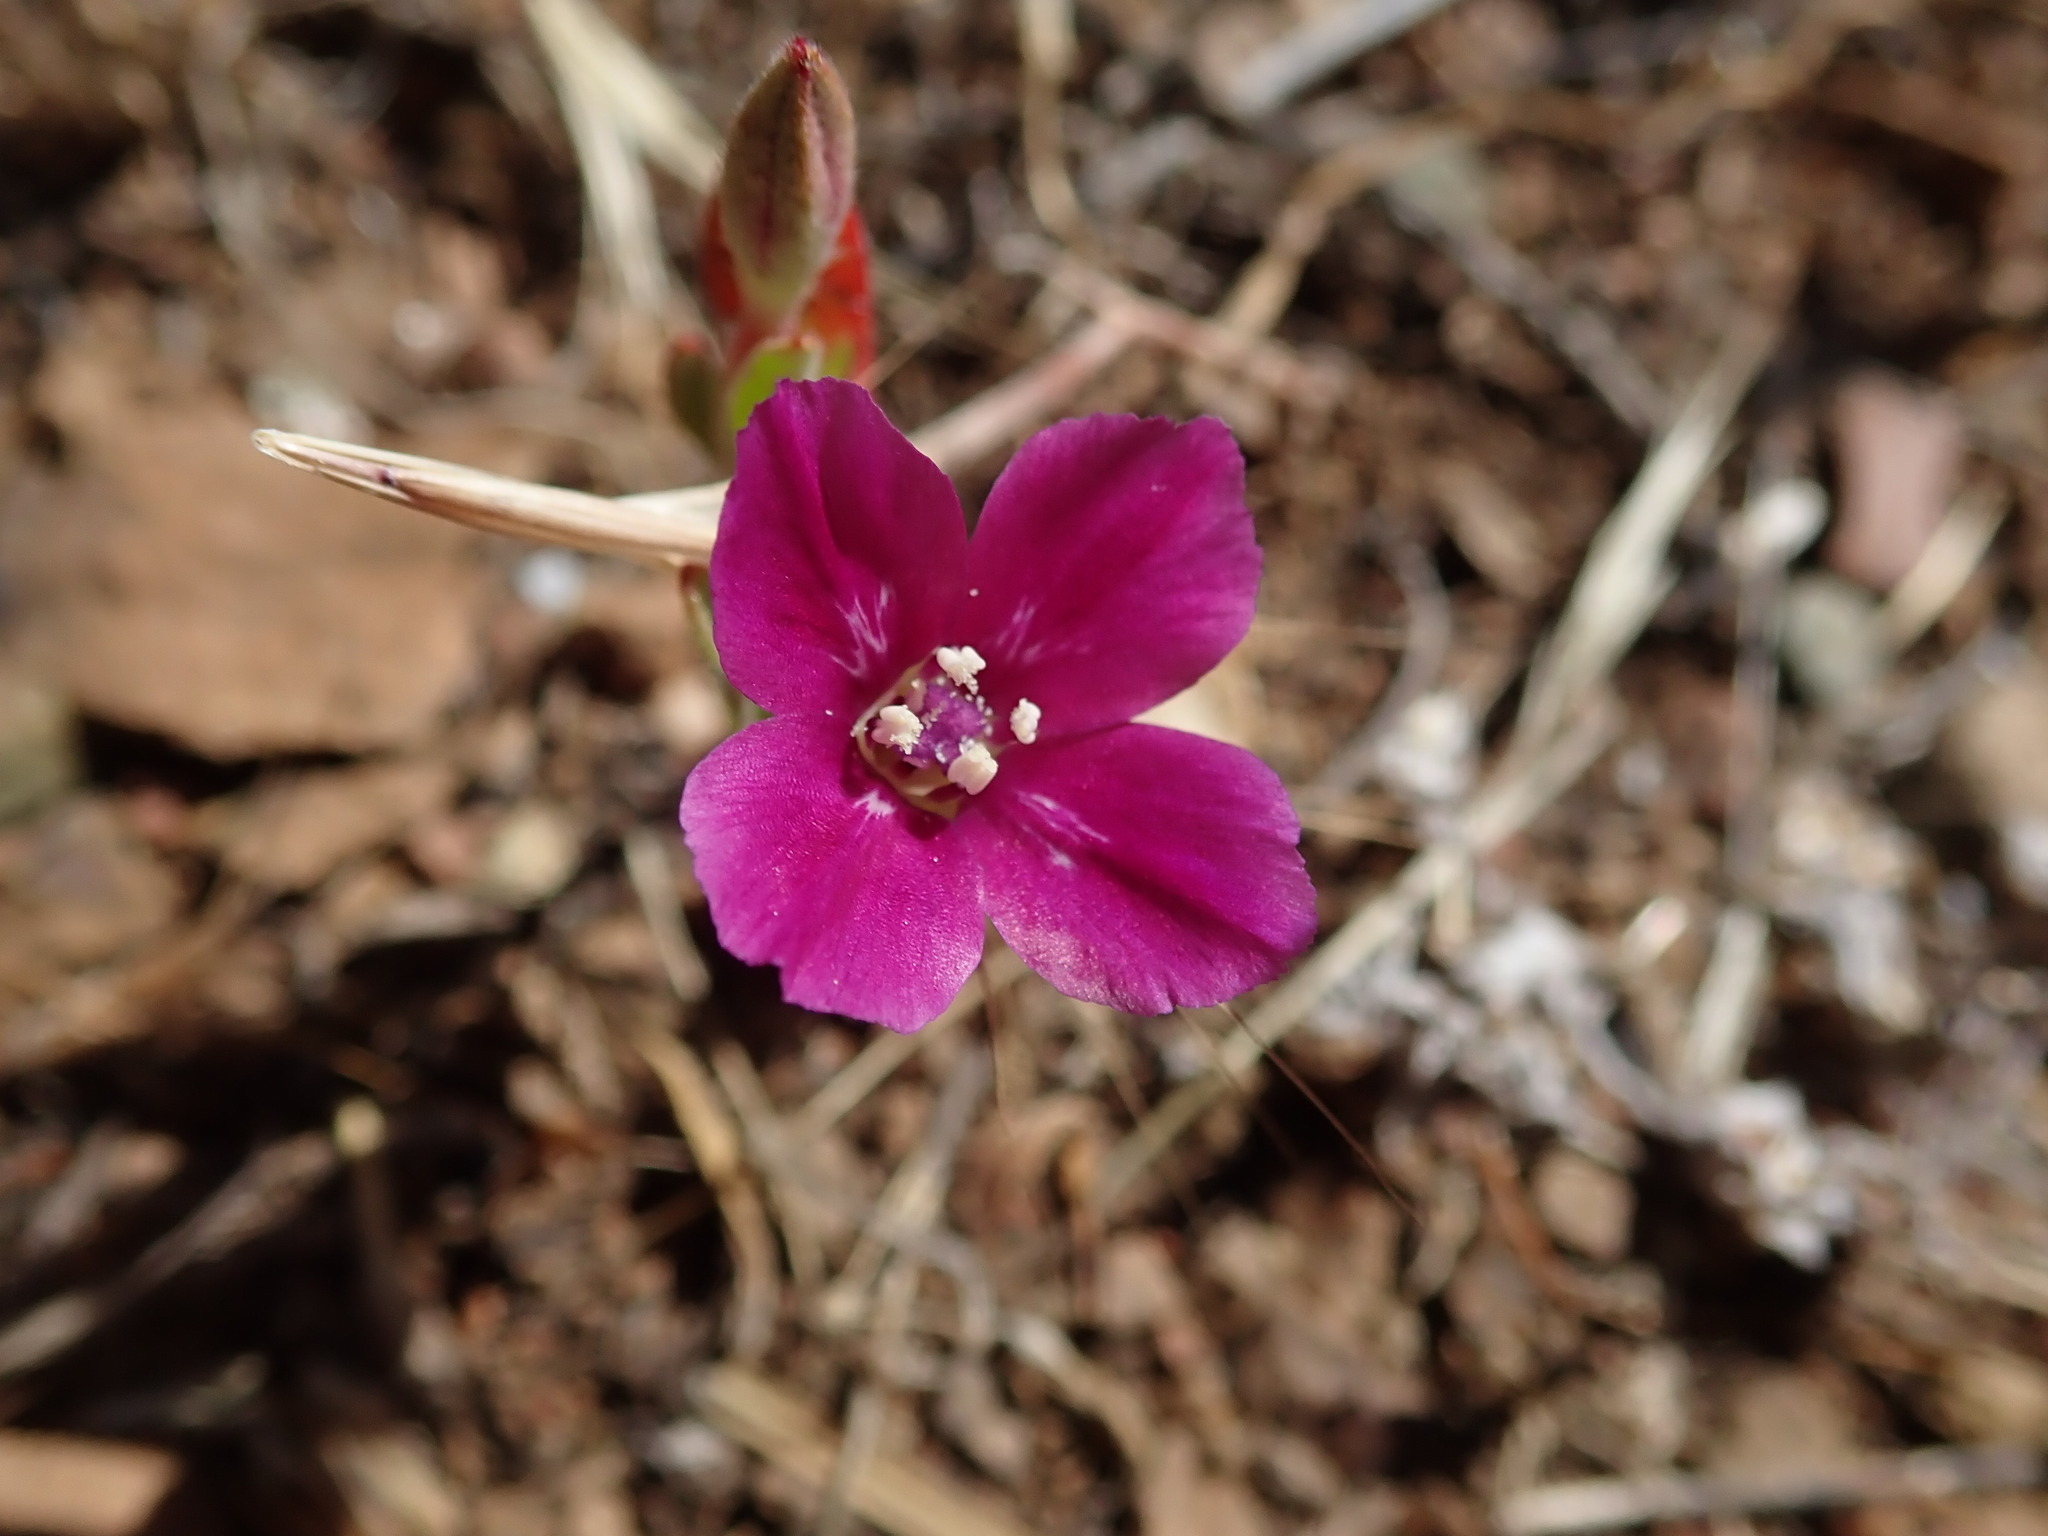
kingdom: Plantae
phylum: Tracheophyta
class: Magnoliopsida
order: Myrtales
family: Onagraceae
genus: Clarkia
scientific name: Clarkia purpurea
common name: Purple clarkia
